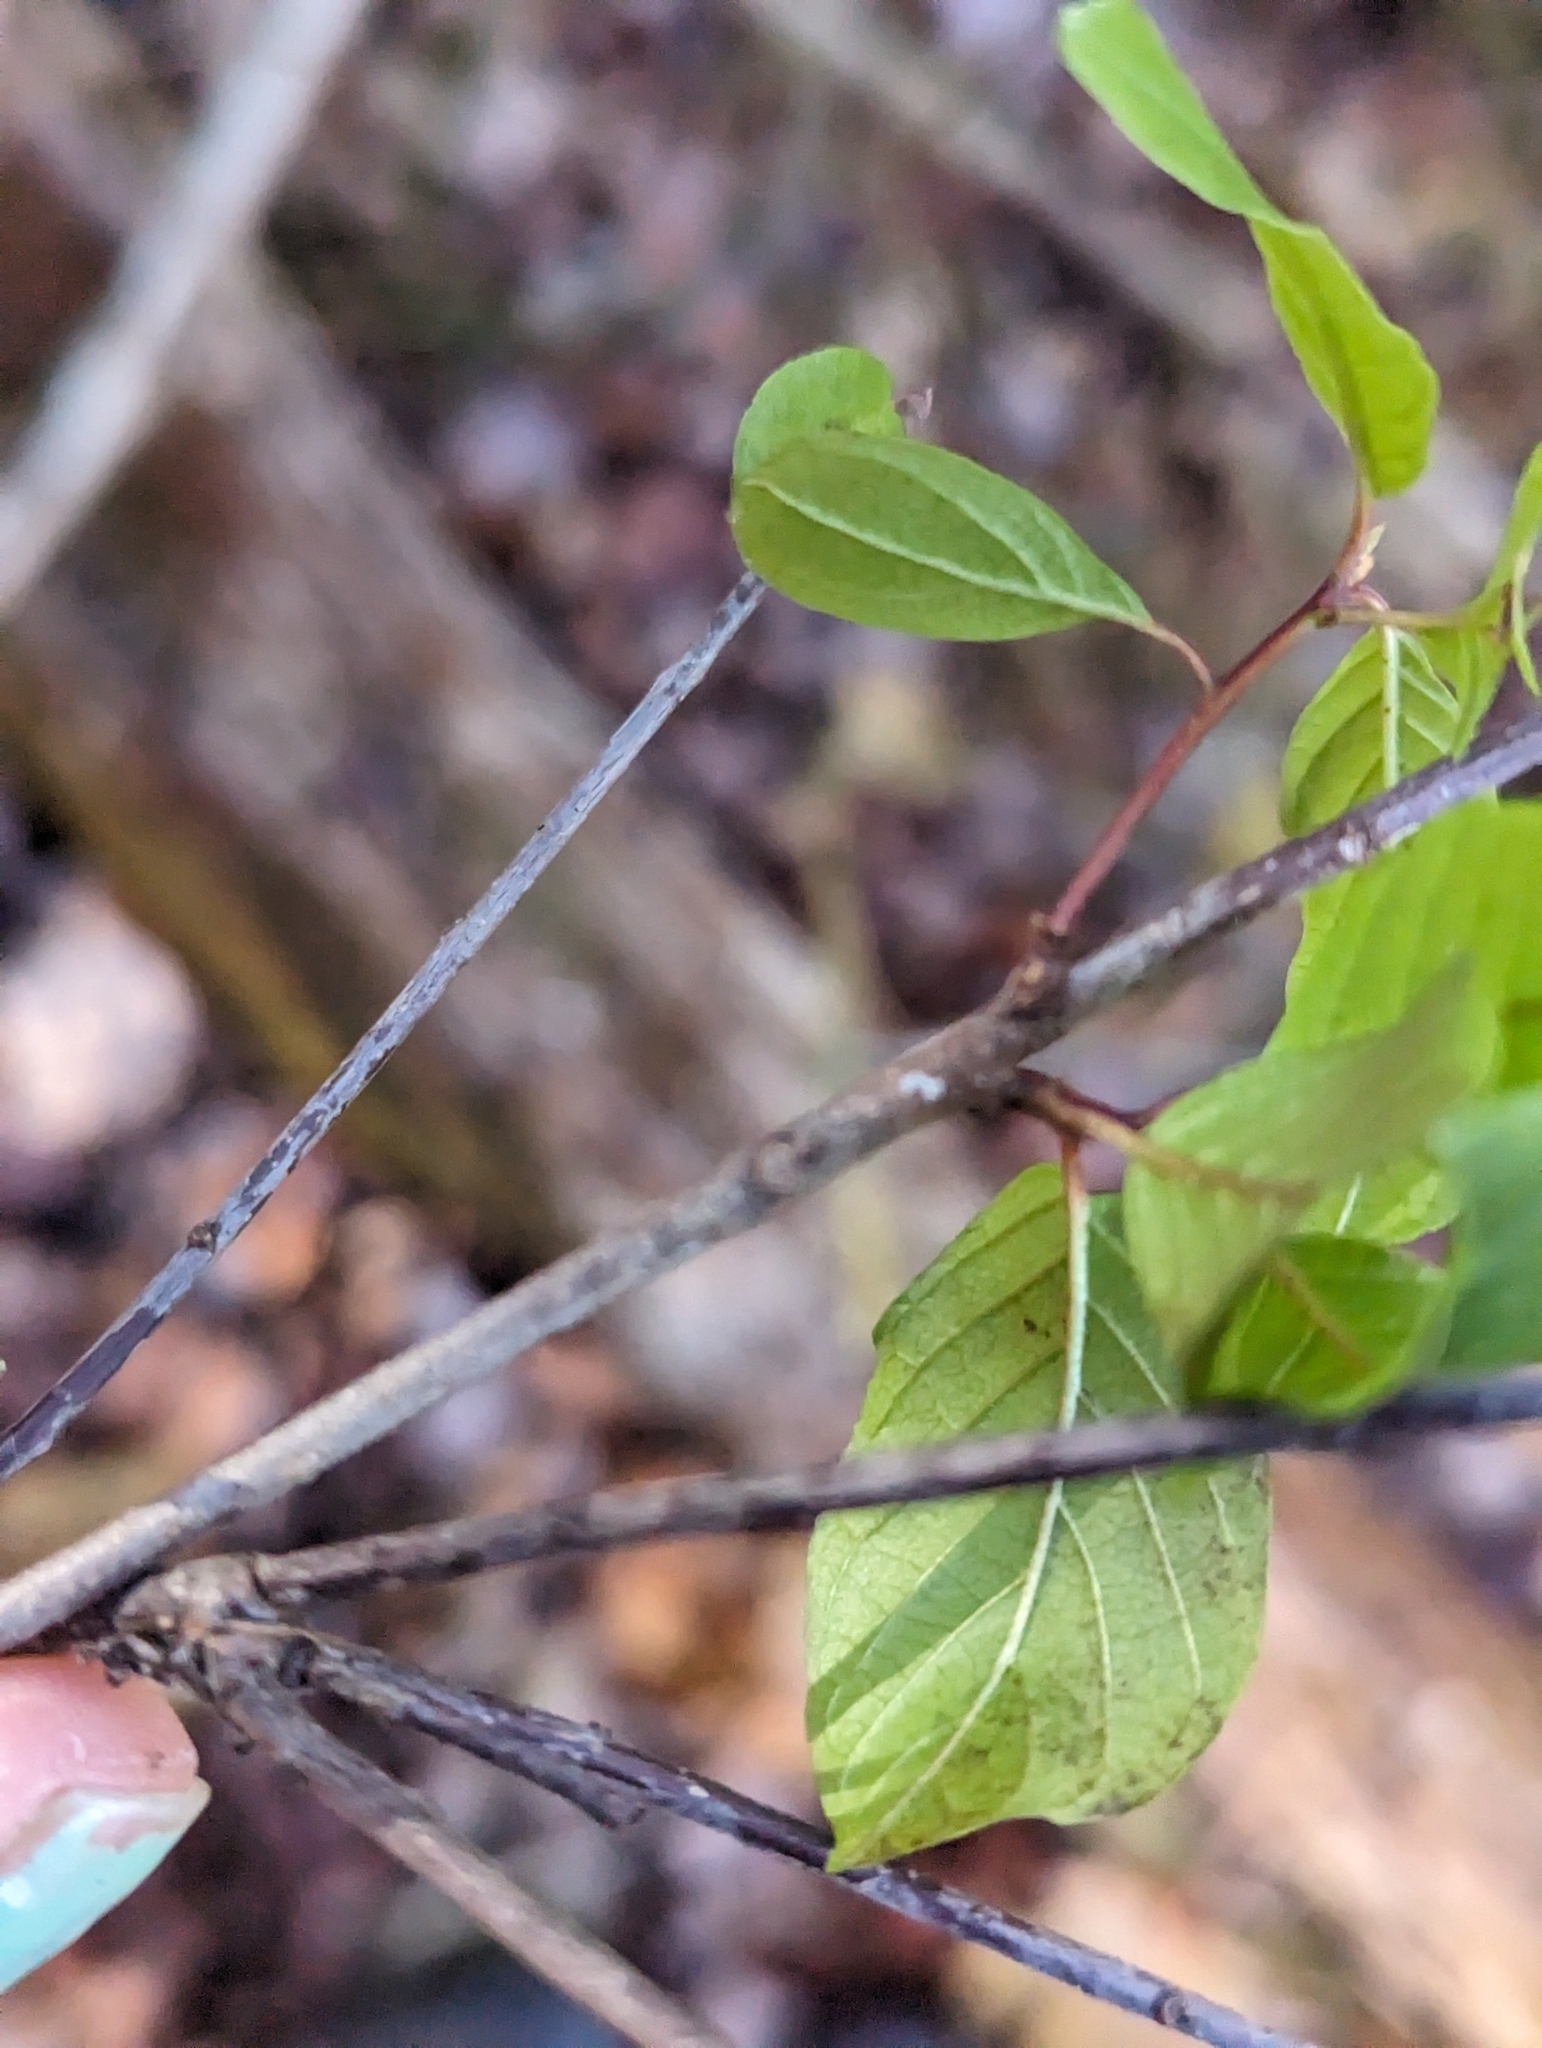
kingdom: Plantae
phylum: Tracheophyta
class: Magnoliopsida
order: Rosales
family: Rhamnaceae
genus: Frangula
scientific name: Frangula alnus
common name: Alder buckthorn
